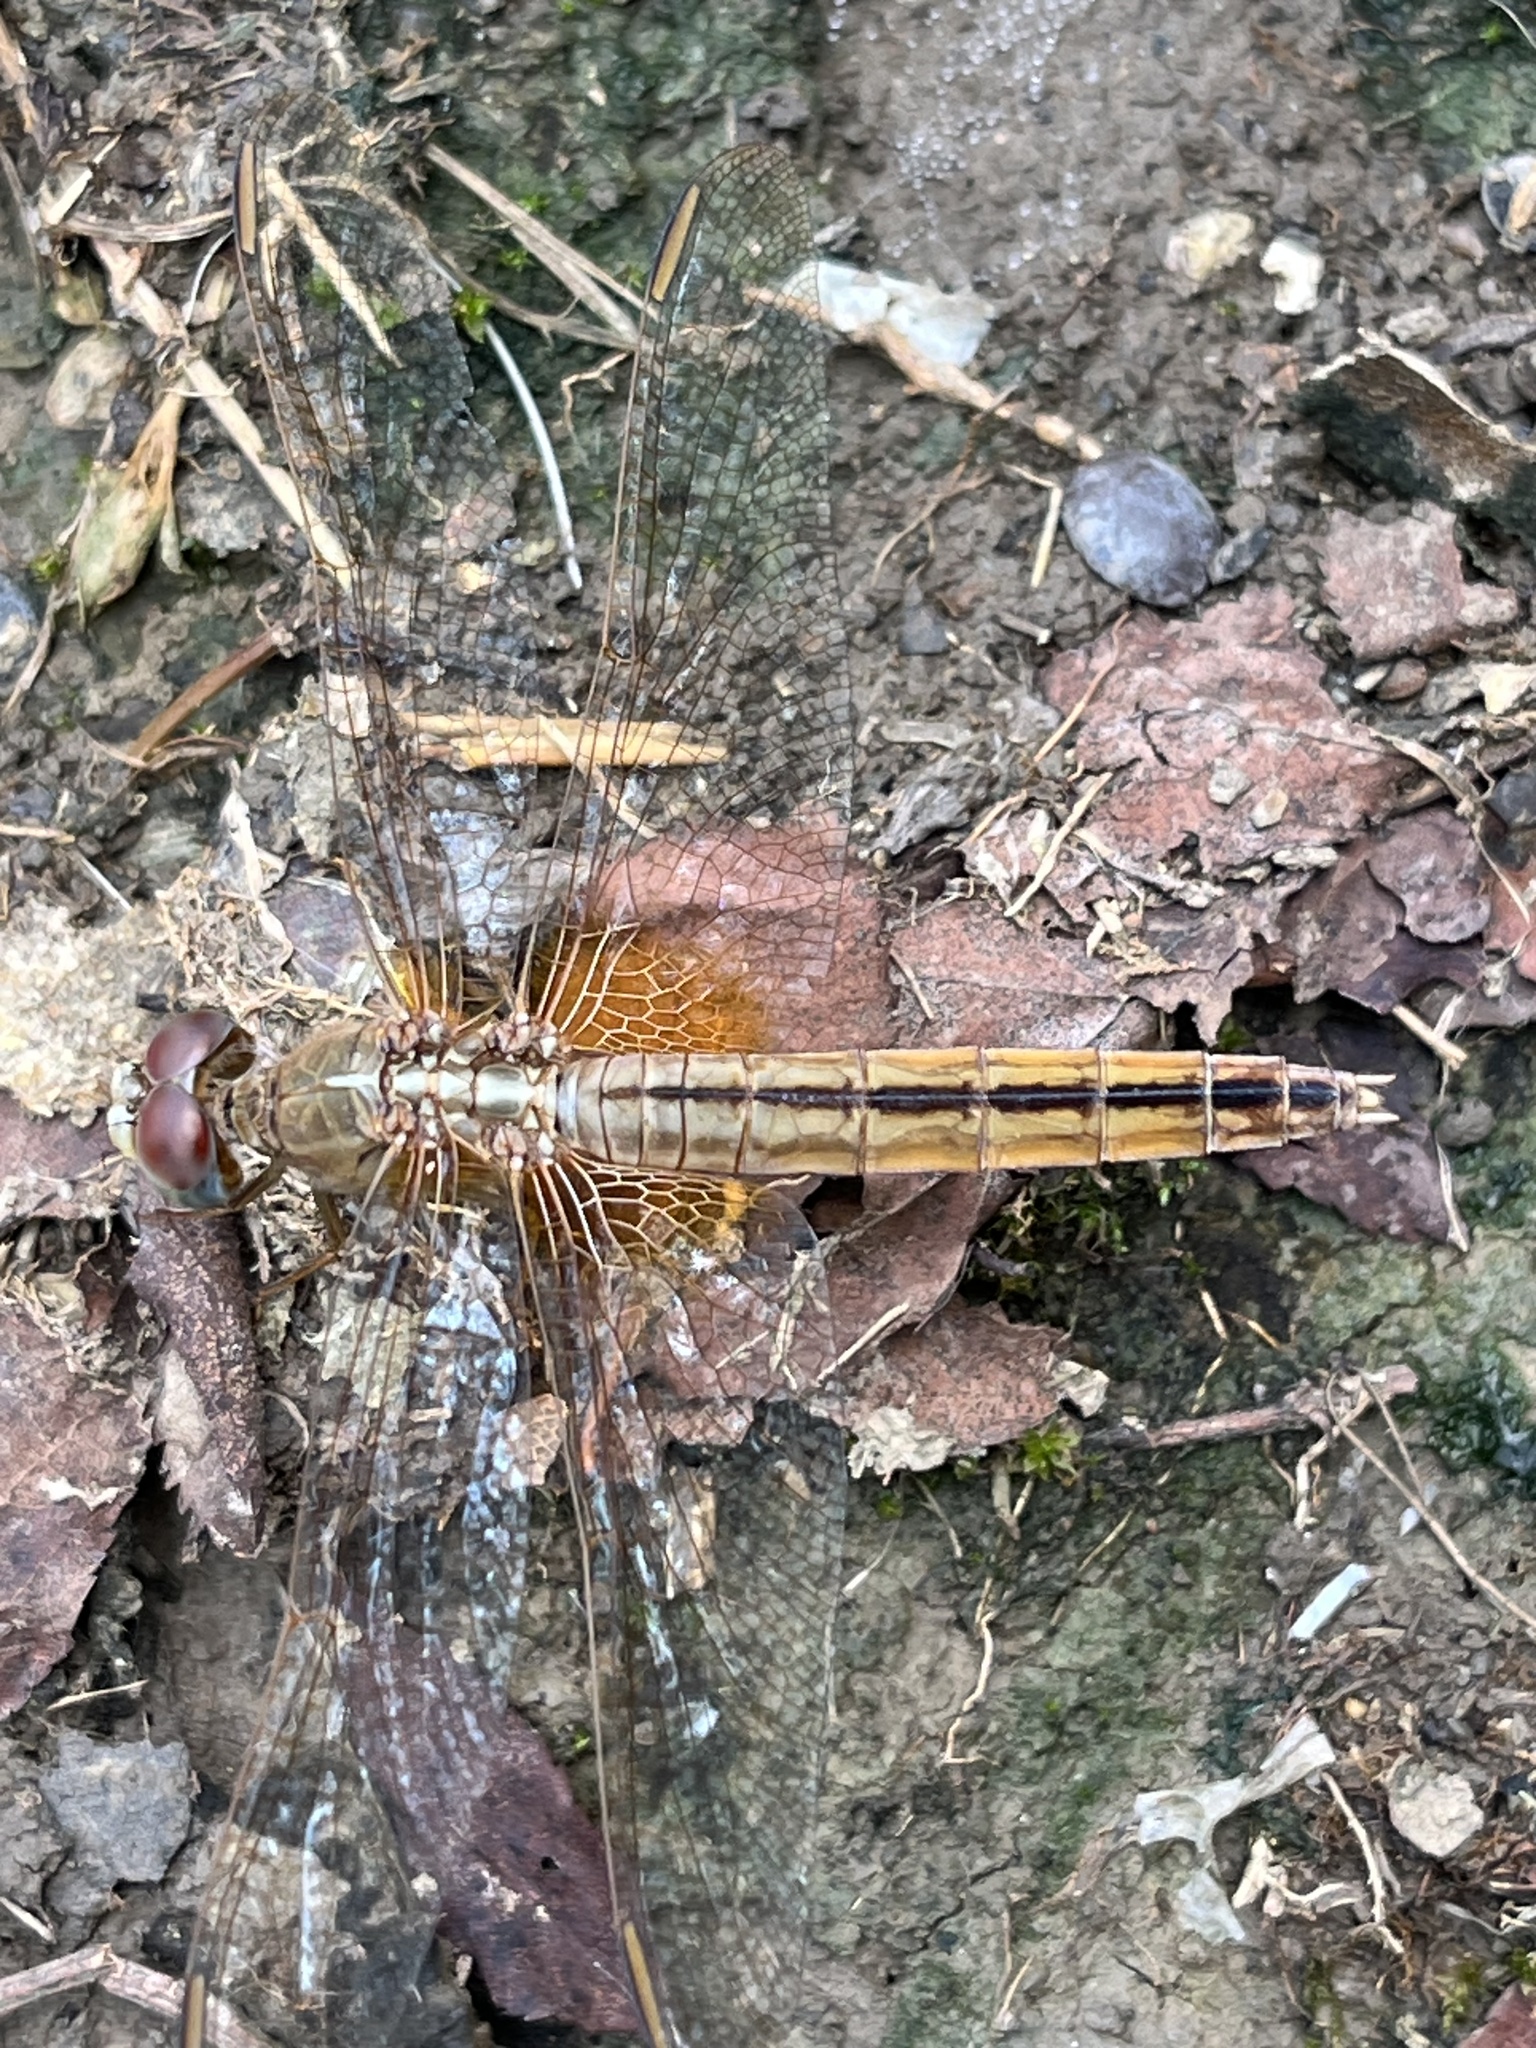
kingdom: Animalia
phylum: Arthropoda
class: Insecta
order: Odonata
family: Libellulidae
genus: Crocothemis
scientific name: Crocothemis servilia
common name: Scarlet skimmer
